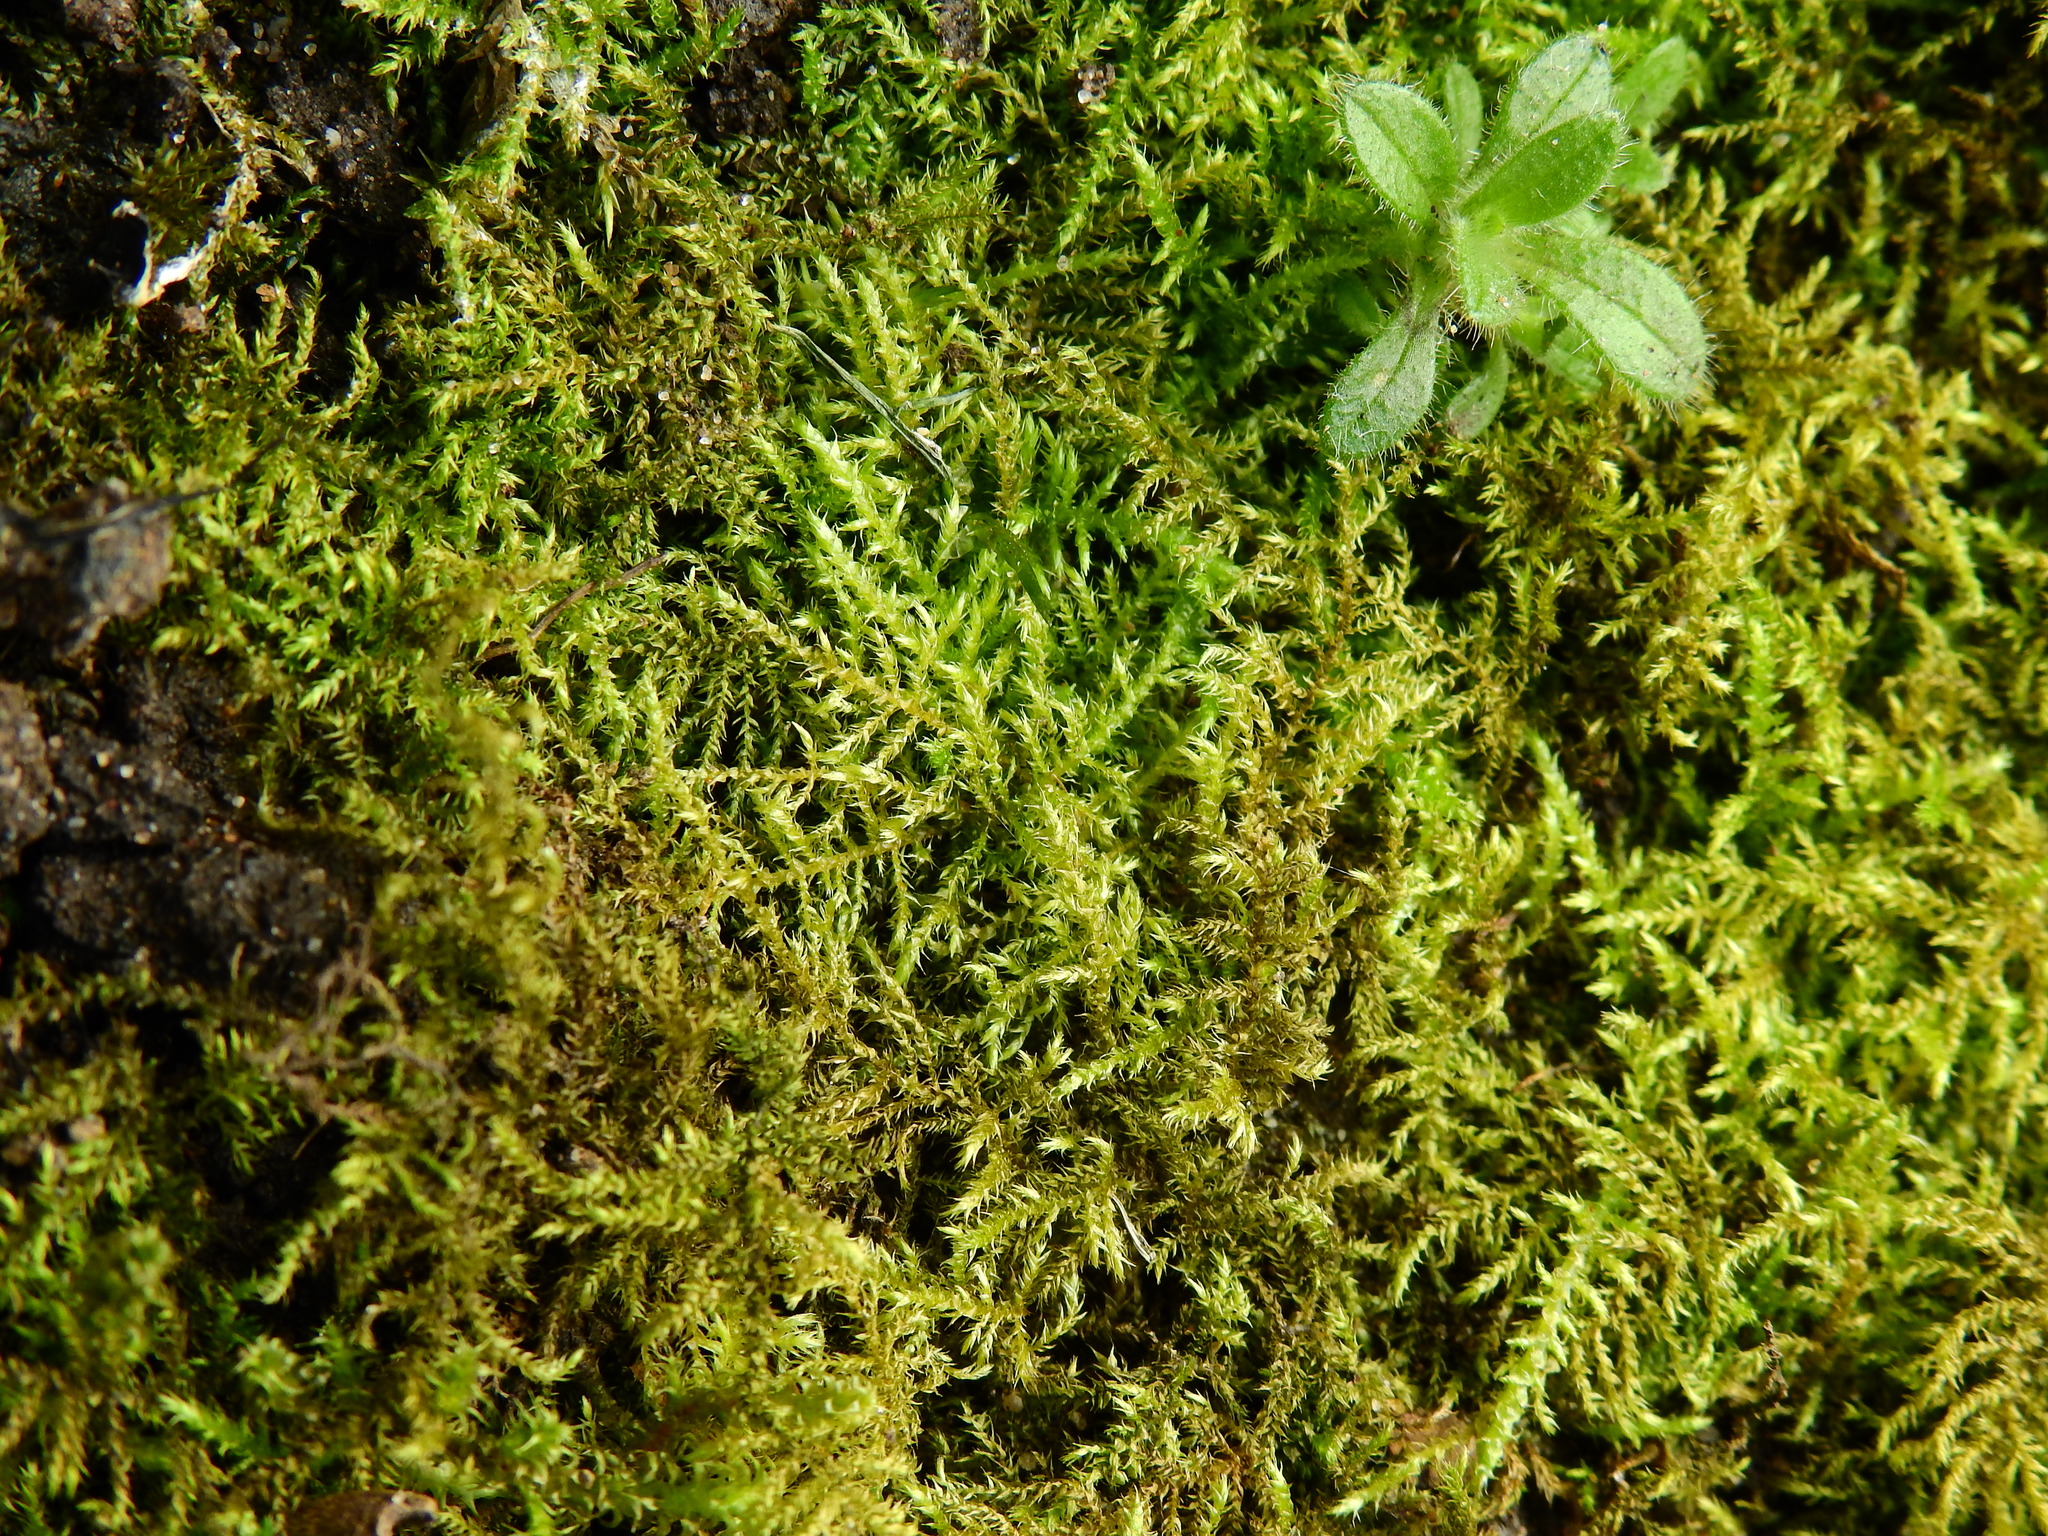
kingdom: Plantae
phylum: Bryophyta
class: Bryopsida
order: Hypnales
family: Amblystegiaceae
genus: Cratoneuron
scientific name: Cratoneuron filicinum
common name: Fern-leaved hook moss
